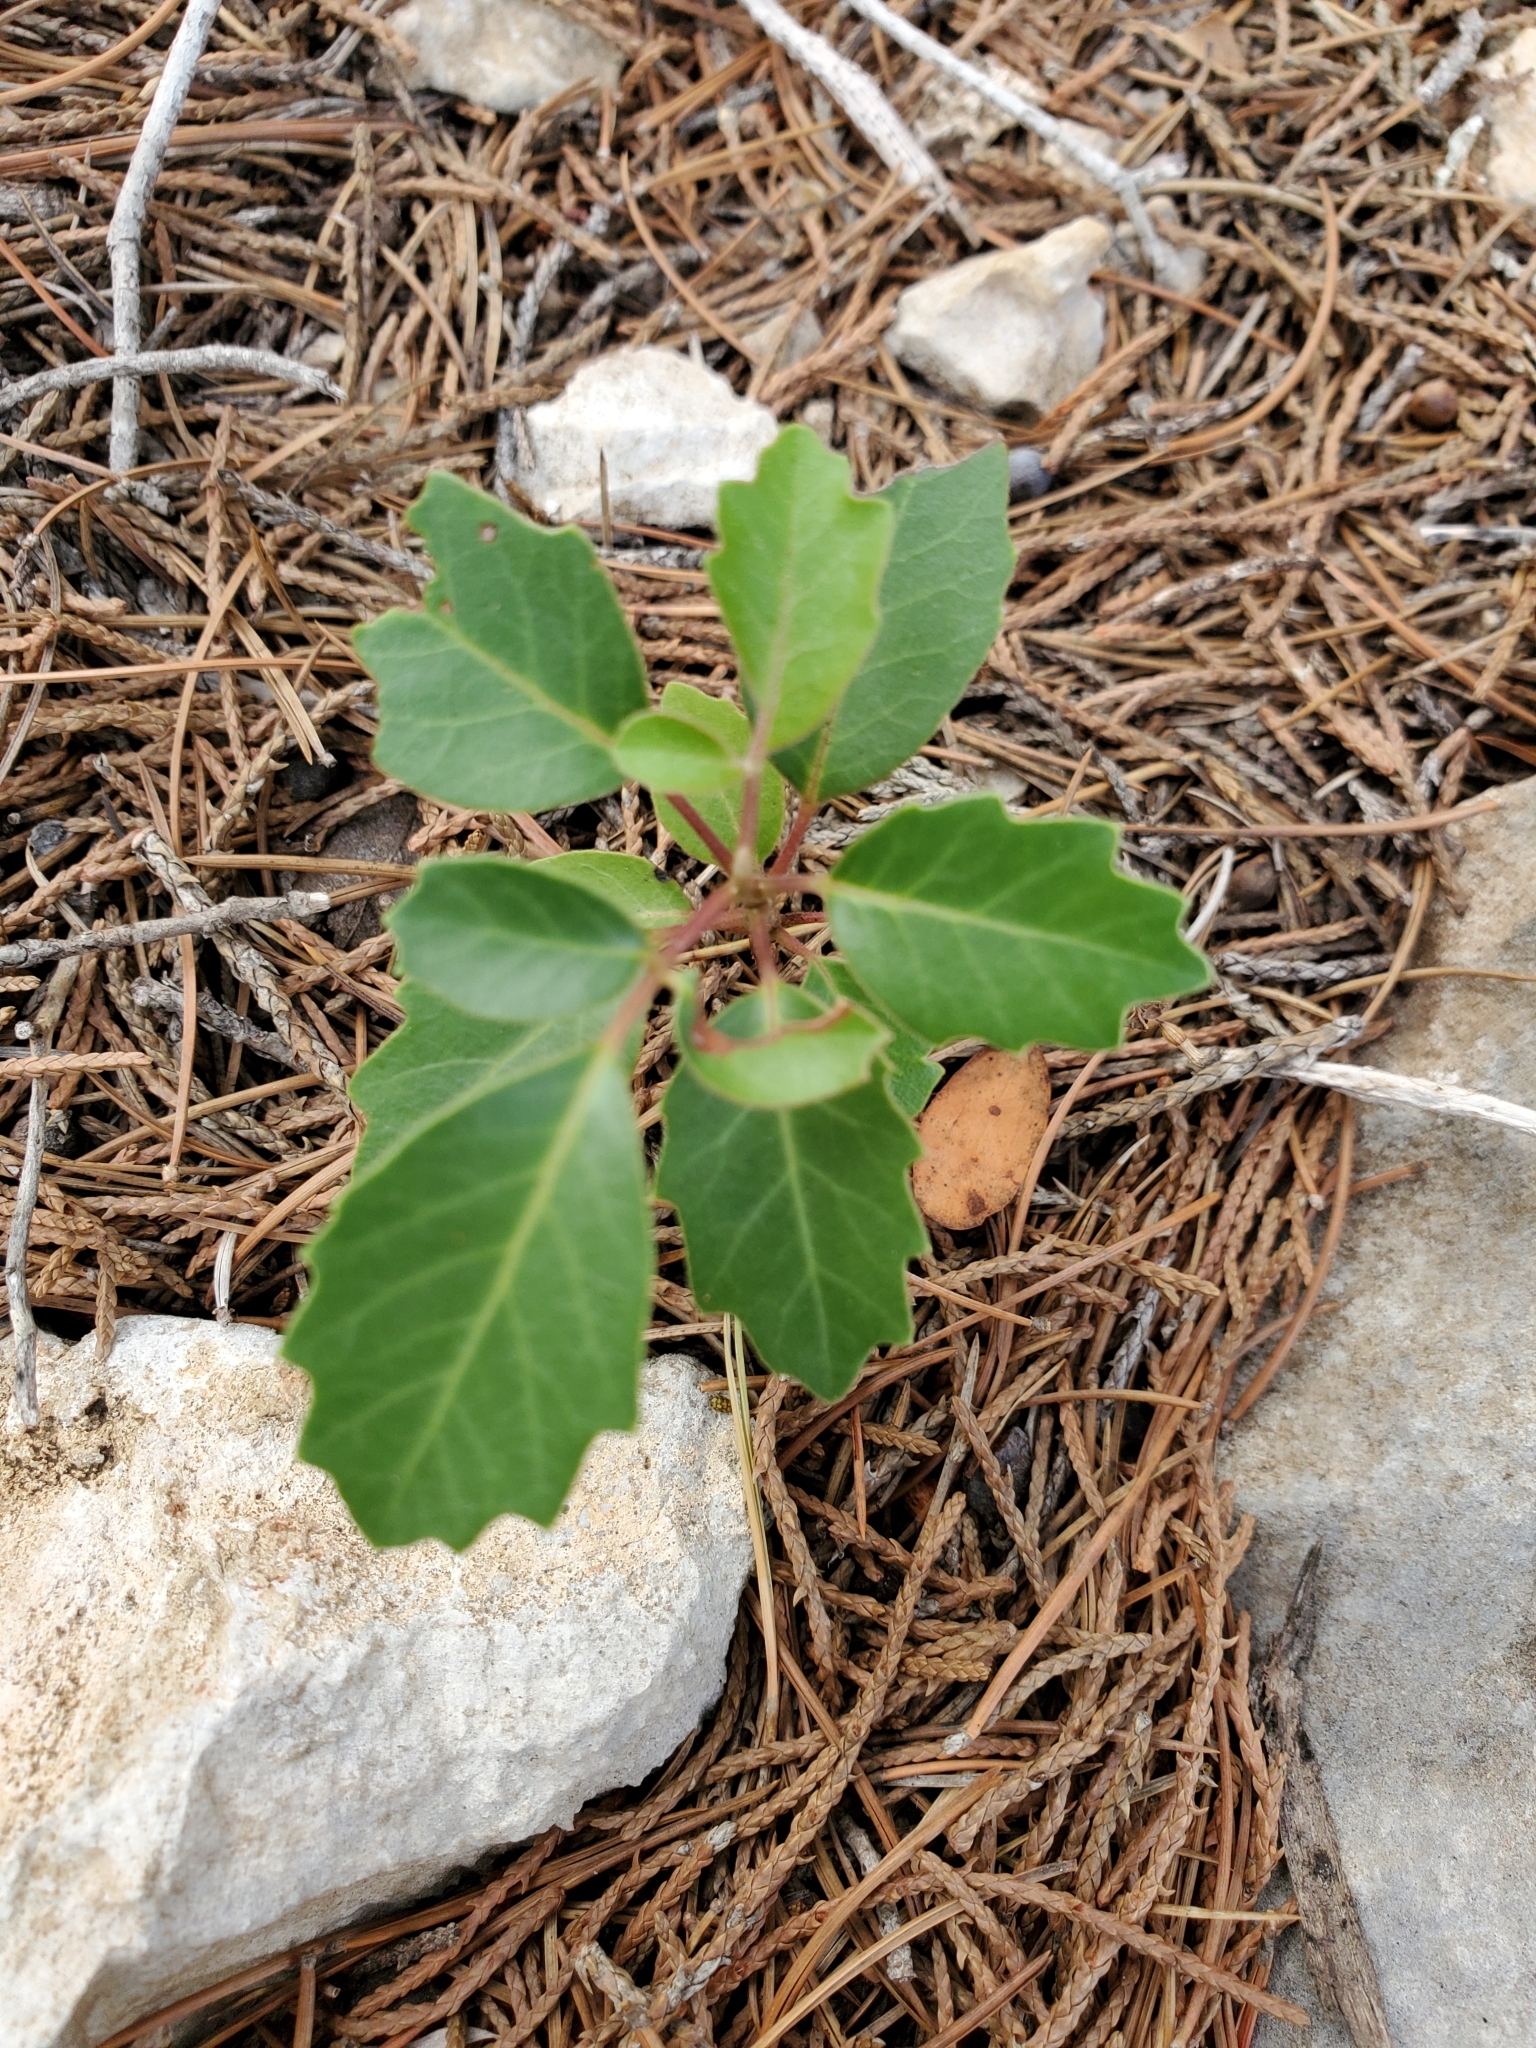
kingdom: Plantae
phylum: Tracheophyta
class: Magnoliopsida
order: Sapindales
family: Anacardiaceae
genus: Rhus
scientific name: Rhus virens
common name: Evergreen sumac
